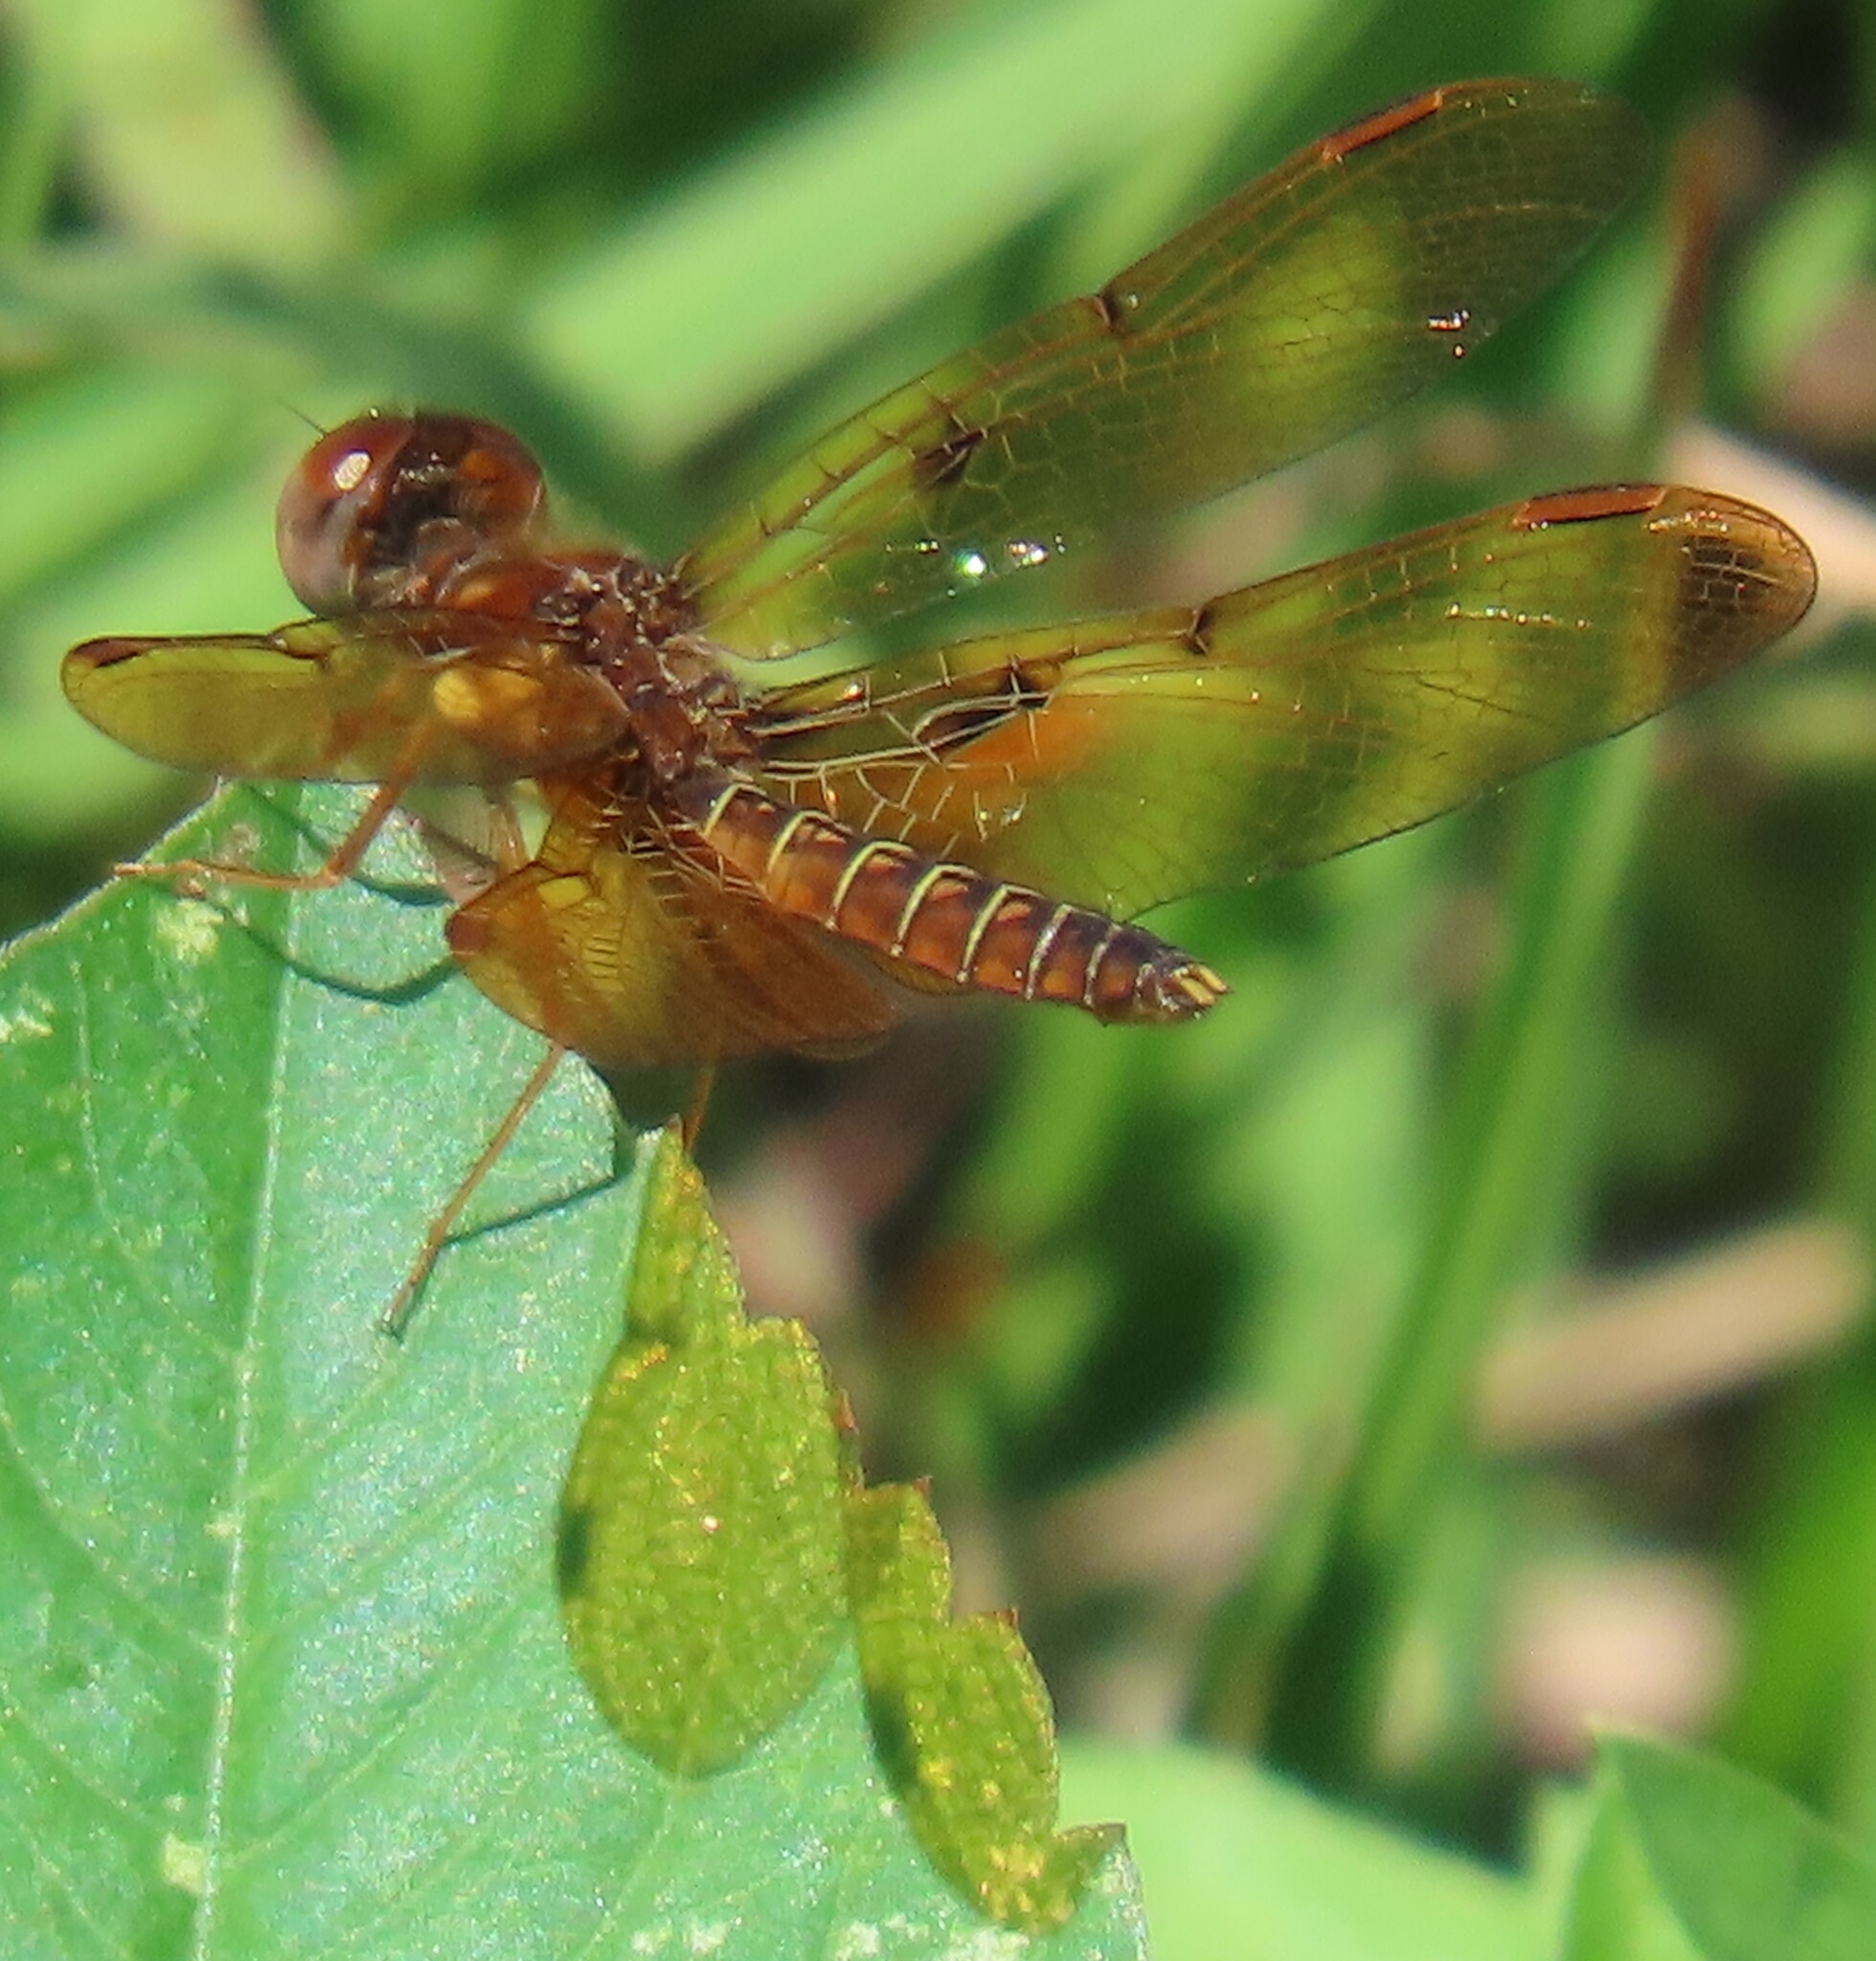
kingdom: Animalia
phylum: Arthropoda
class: Insecta
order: Odonata
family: Libellulidae
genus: Perithemis
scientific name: Perithemis tenera
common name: Eastern amberwing
